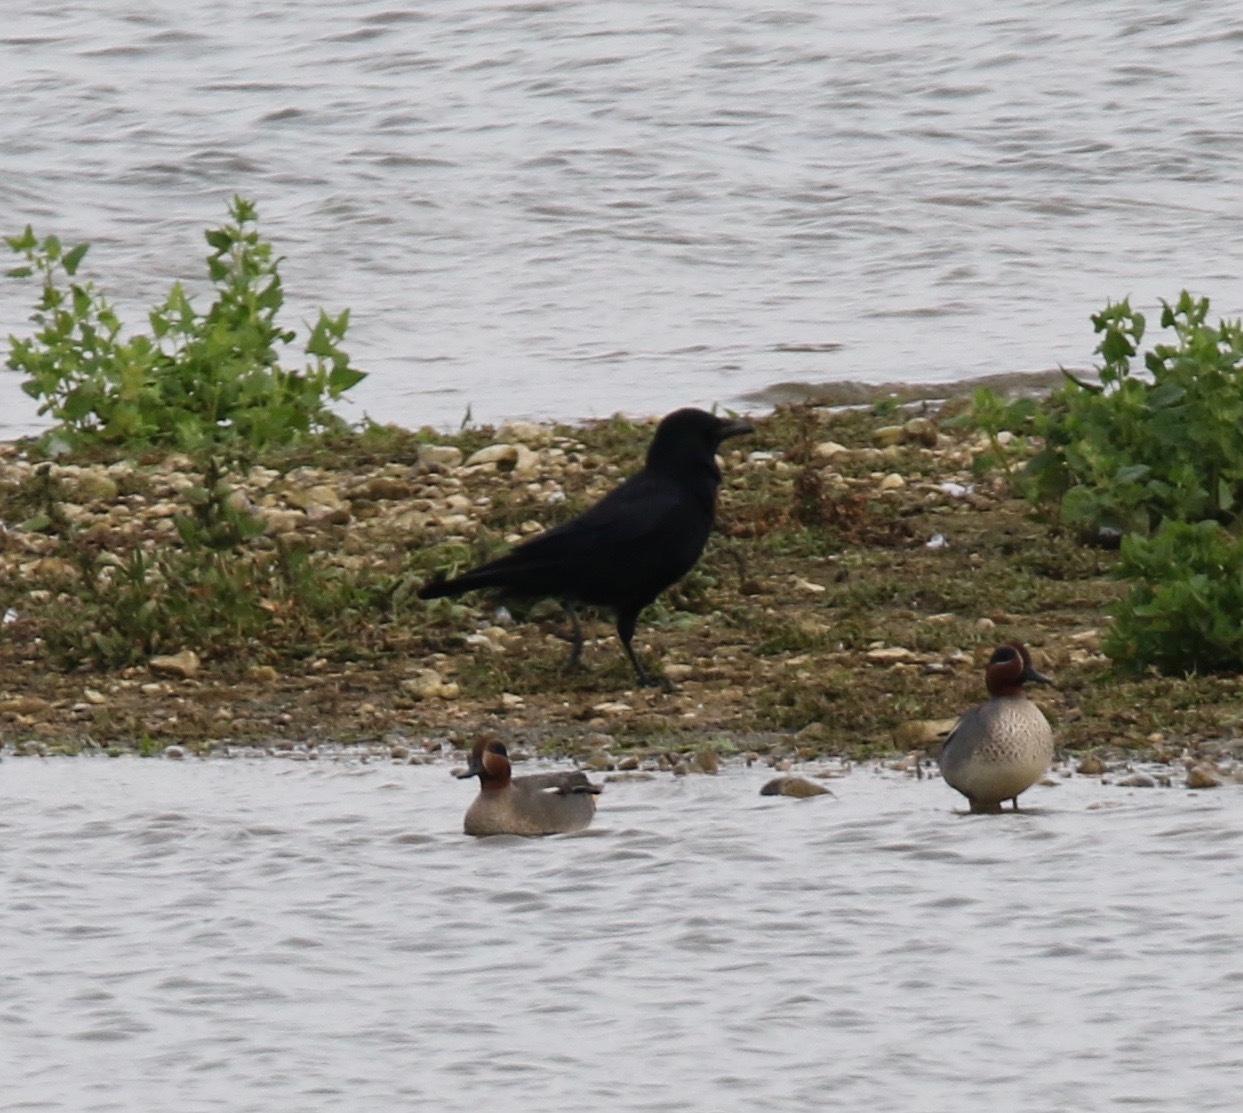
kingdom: Animalia
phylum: Chordata
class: Aves
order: Passeriformes
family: Corvidae
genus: Corvus
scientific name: Corvus corone
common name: Carrion crow
